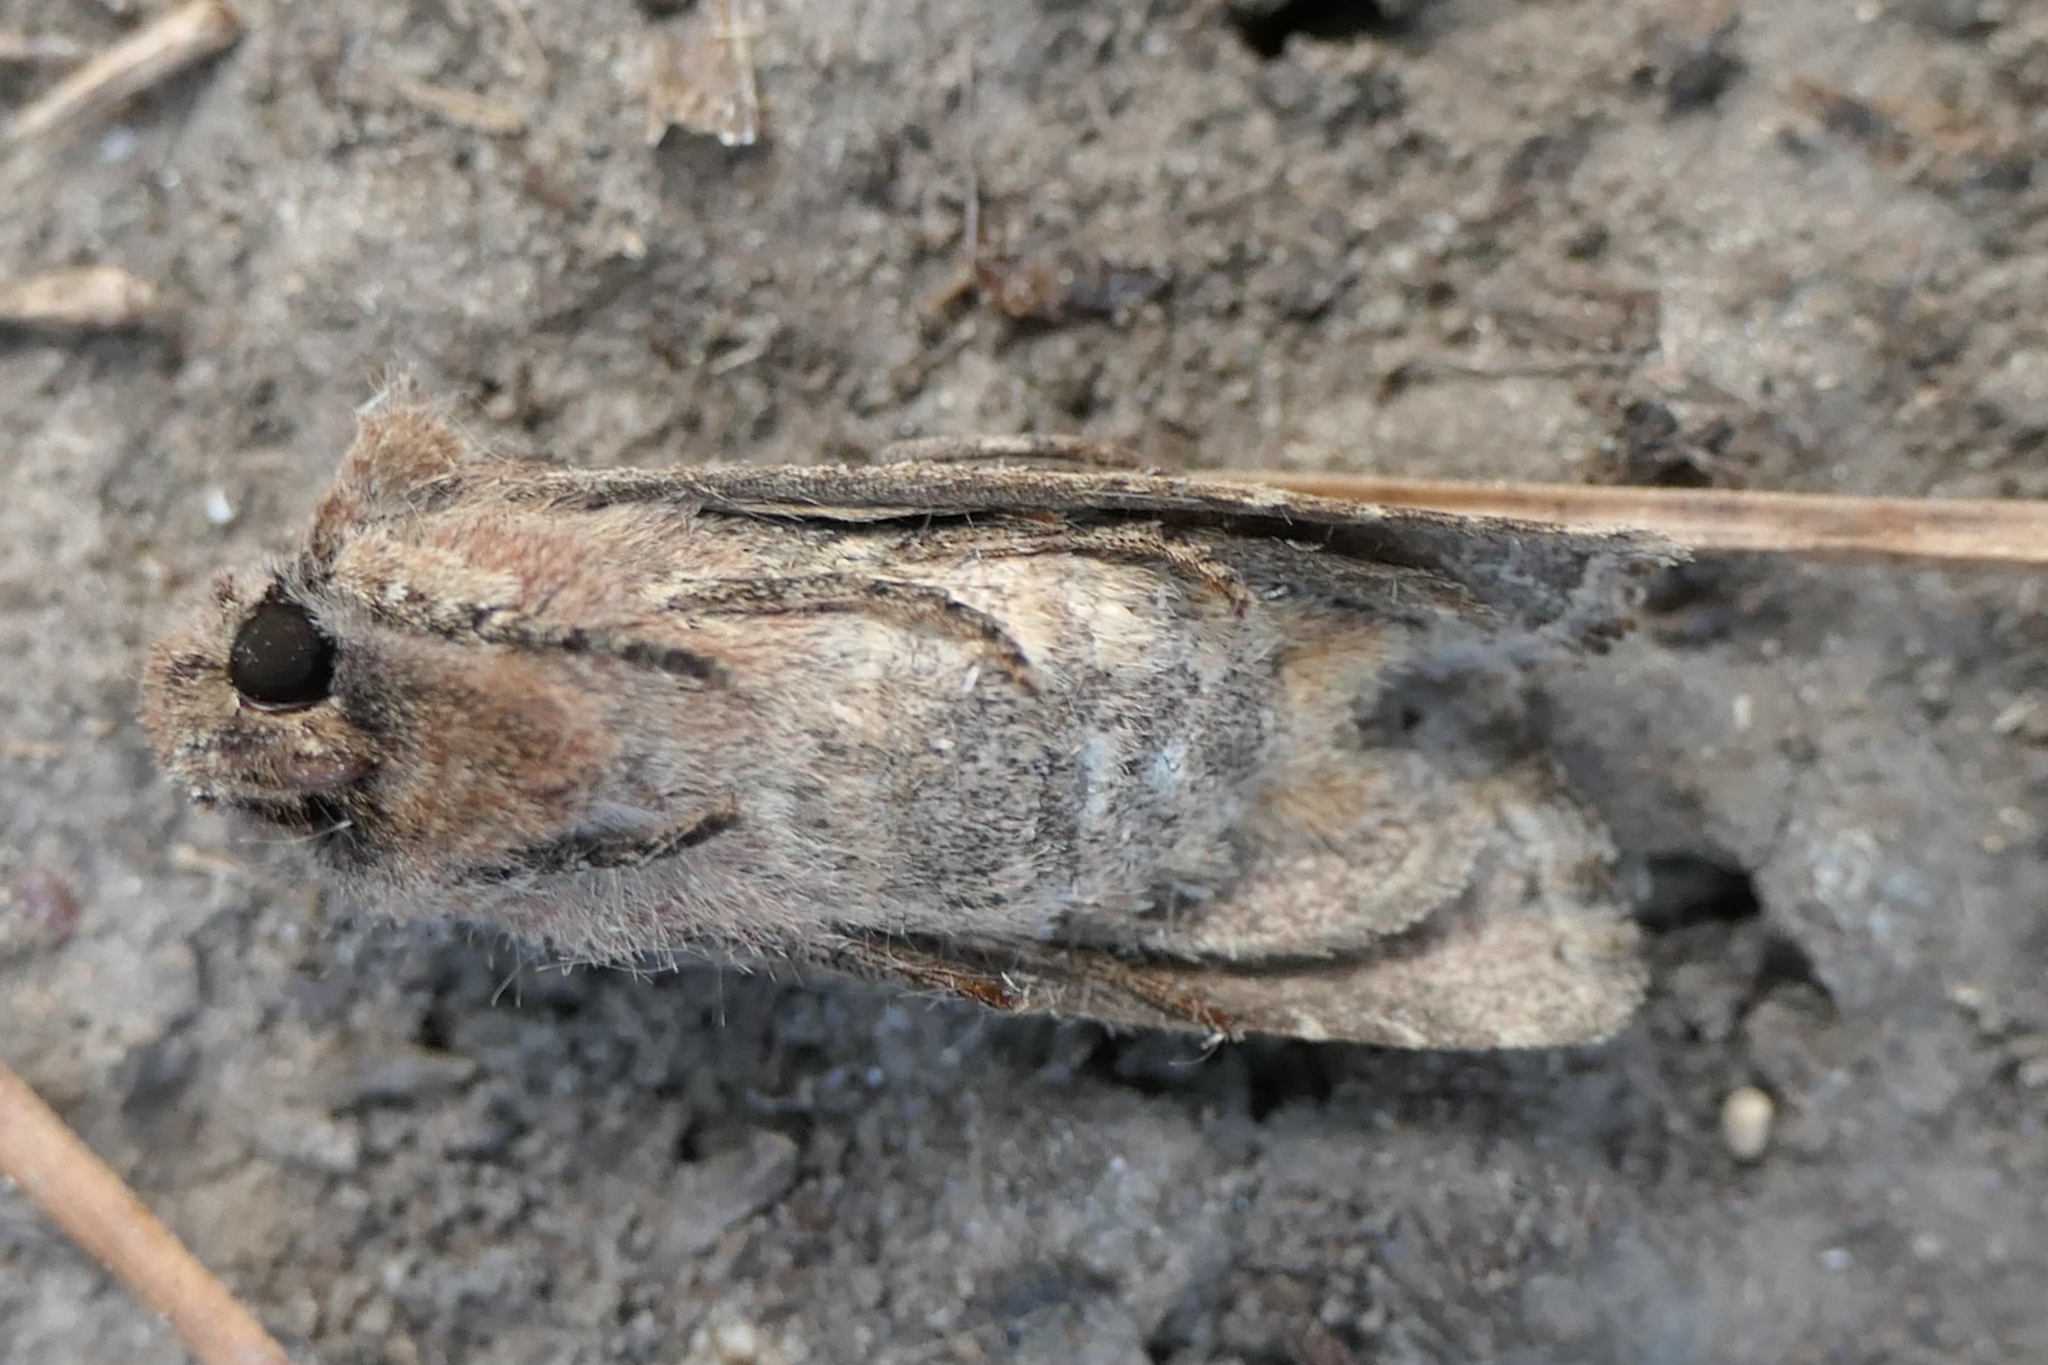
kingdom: Animalia
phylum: Arthropoda
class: Insecta
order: Lepidoptera
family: Noctuidae
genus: Ichneutica
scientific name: Ichneutica insignis
